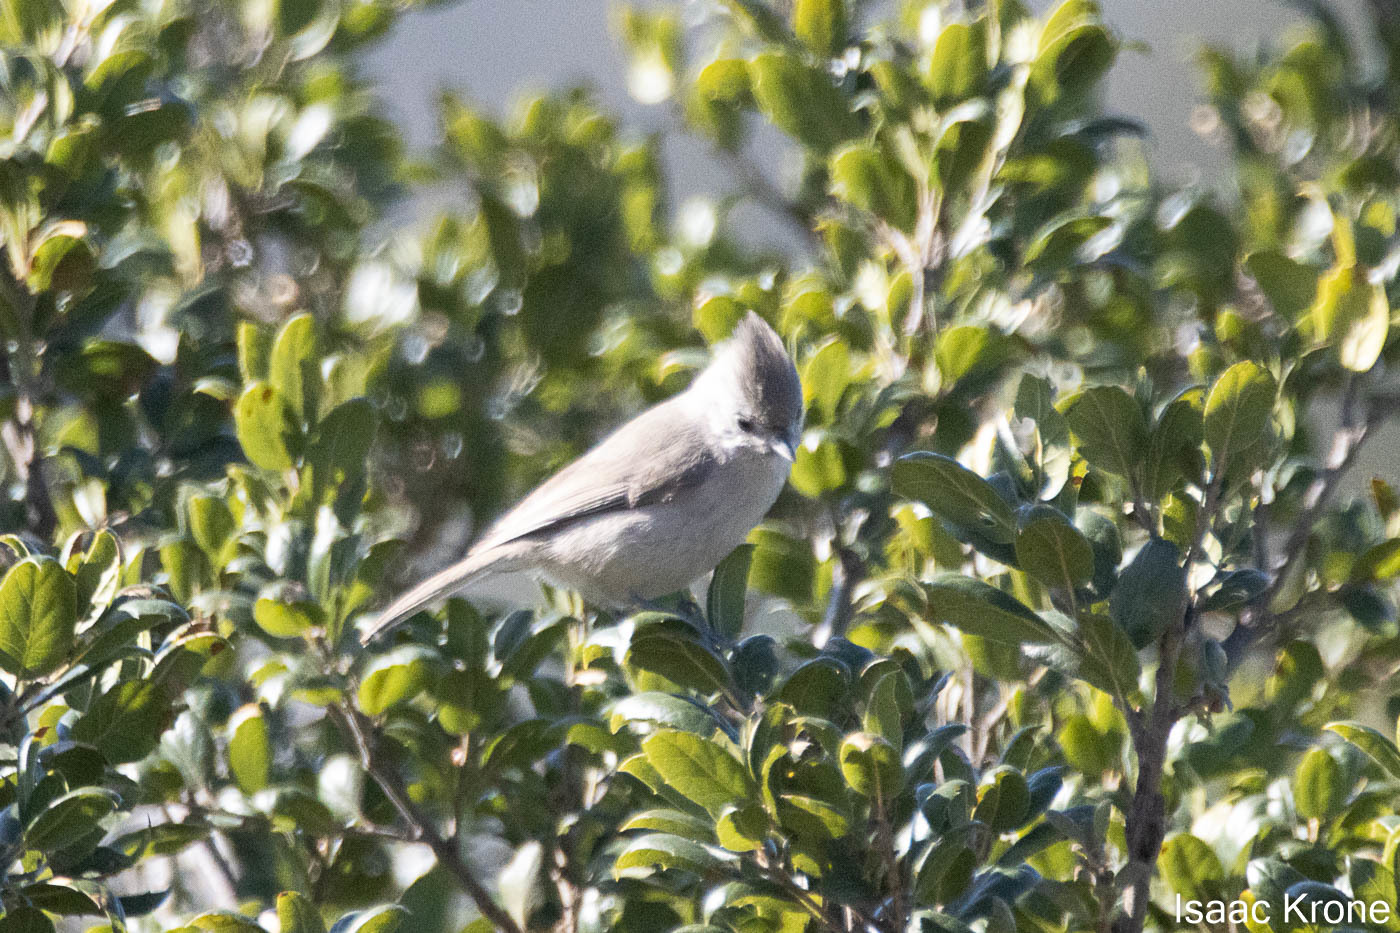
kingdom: Animalia
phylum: Chordata
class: Aves
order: Passeriformes
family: Paridae
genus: Baeolophus
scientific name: Baeolophus inornatus
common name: Oak titmouse
